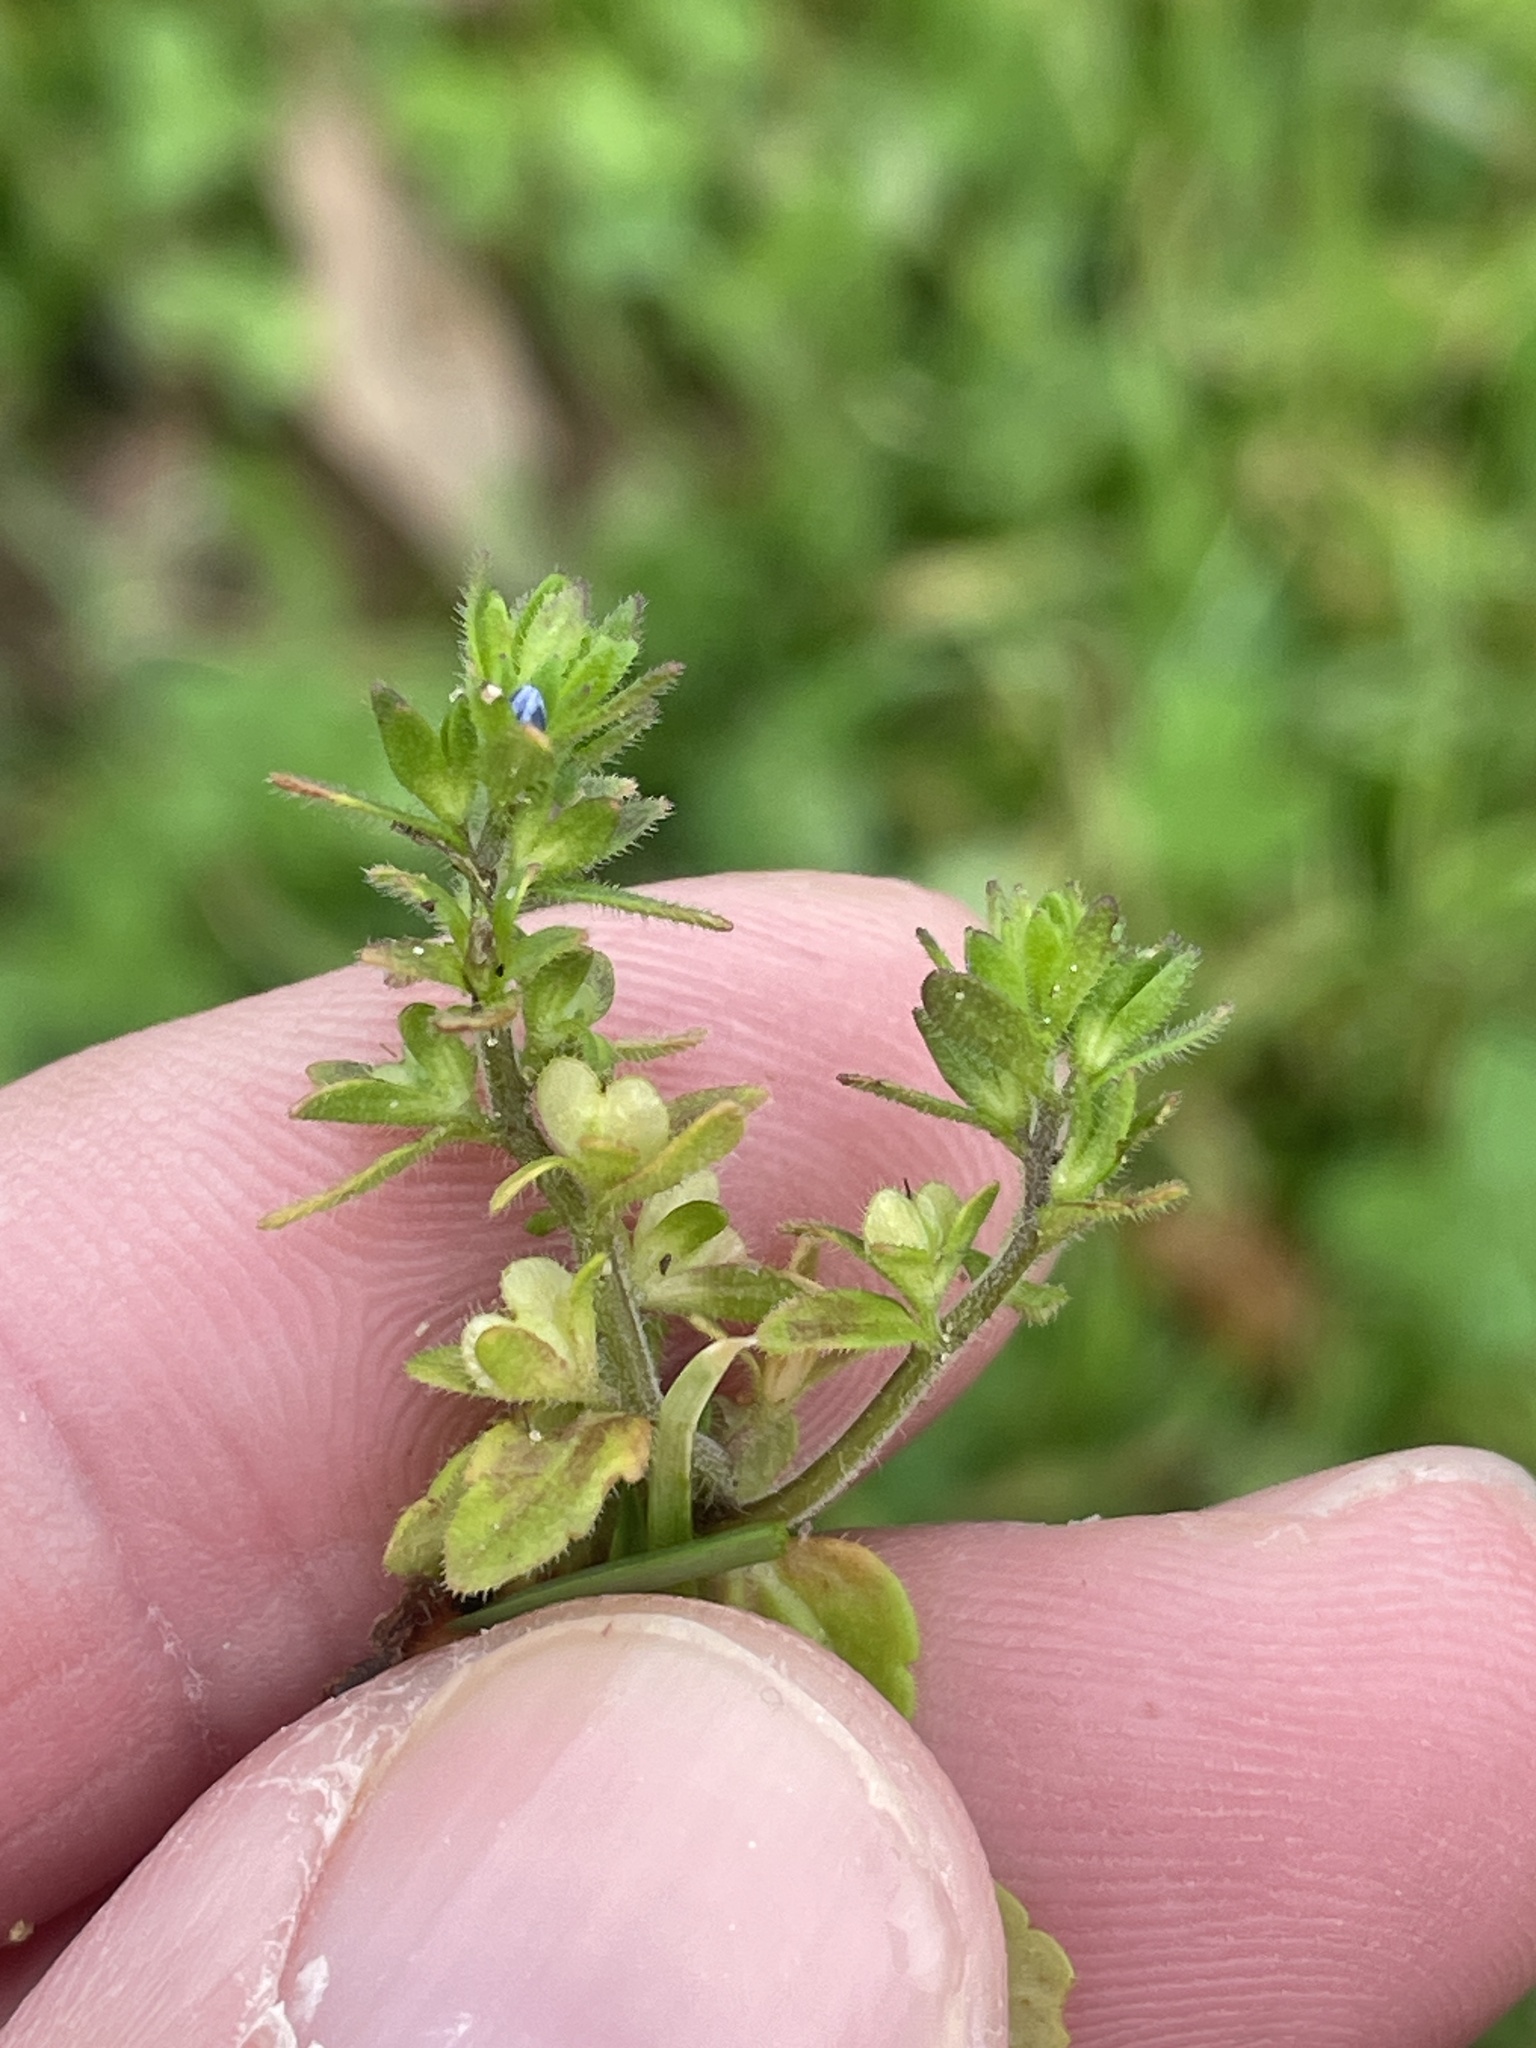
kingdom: Plantae
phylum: Tracheophyta
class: Magnoliopsida
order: Lamiales
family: Plantaginaceae
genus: Veronica
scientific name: Veronica arvensis
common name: Corn speedwell
